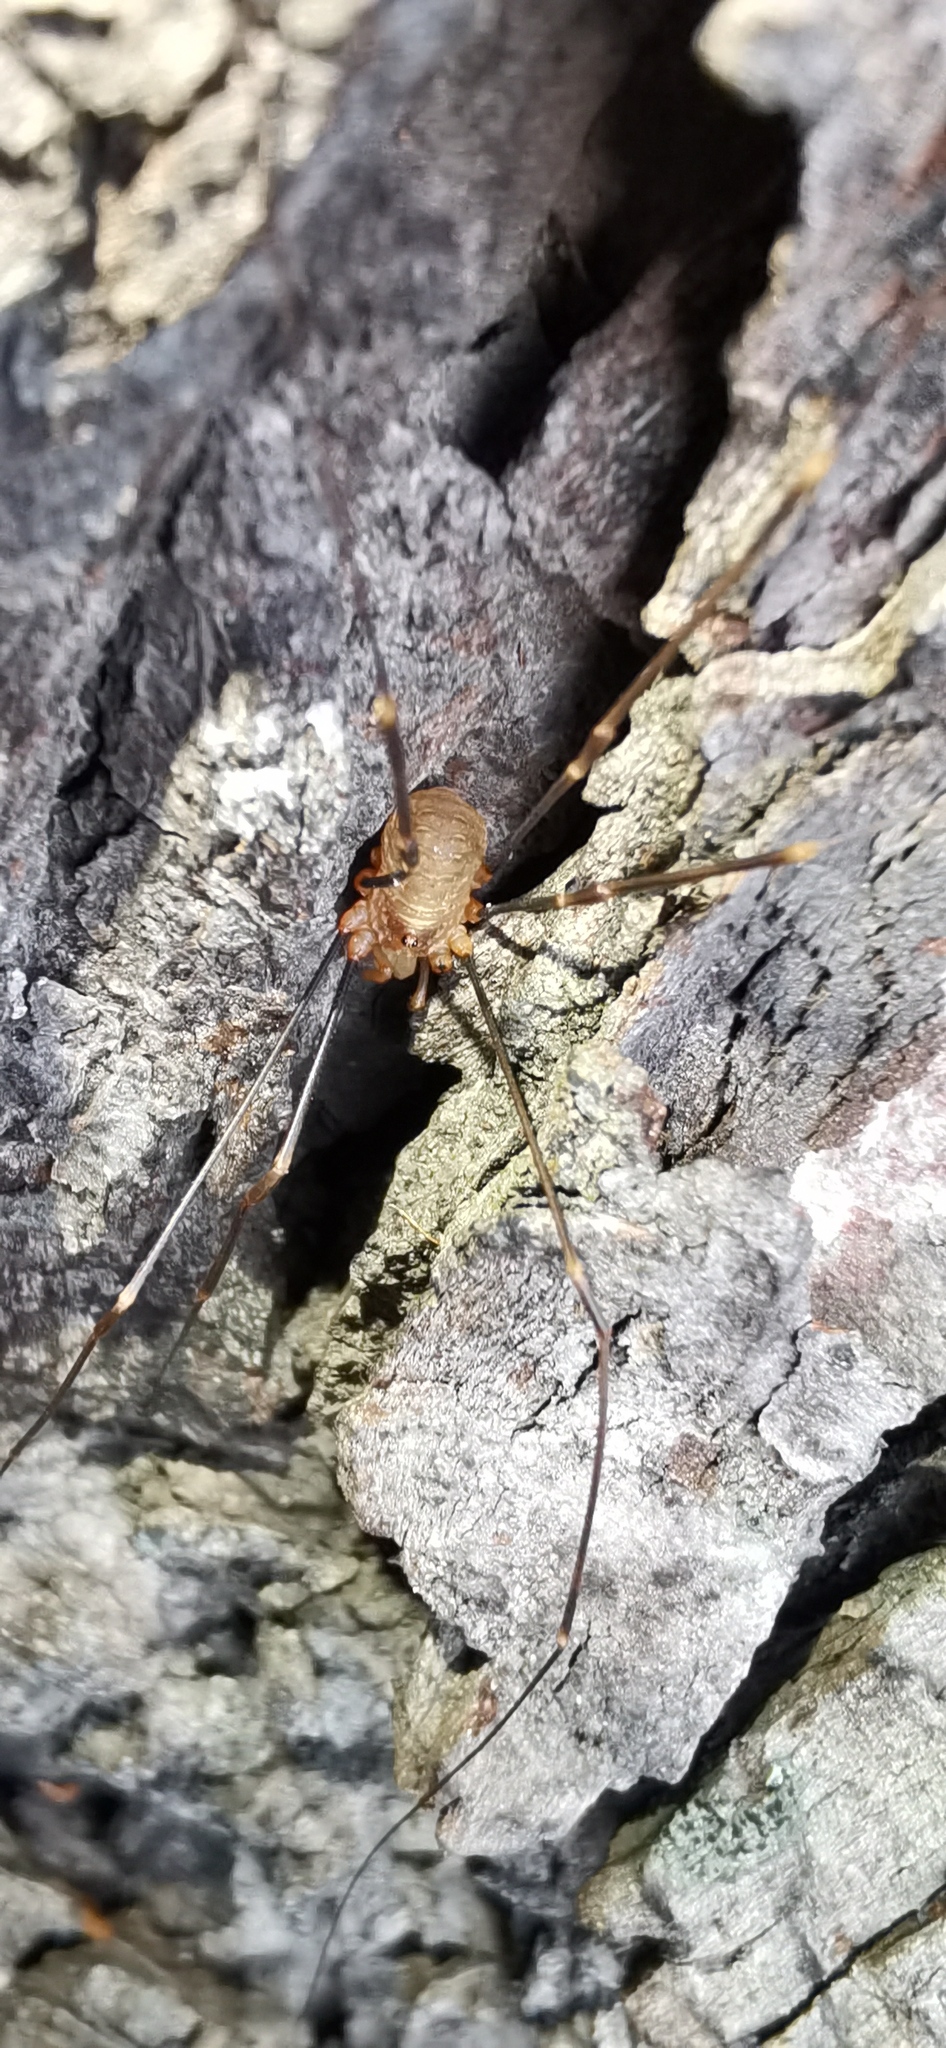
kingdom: Animalia
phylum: Arthropoda
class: Arachnida
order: Opiliones
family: Phalangiidae
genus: Opilio
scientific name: Opilio canestrinii
